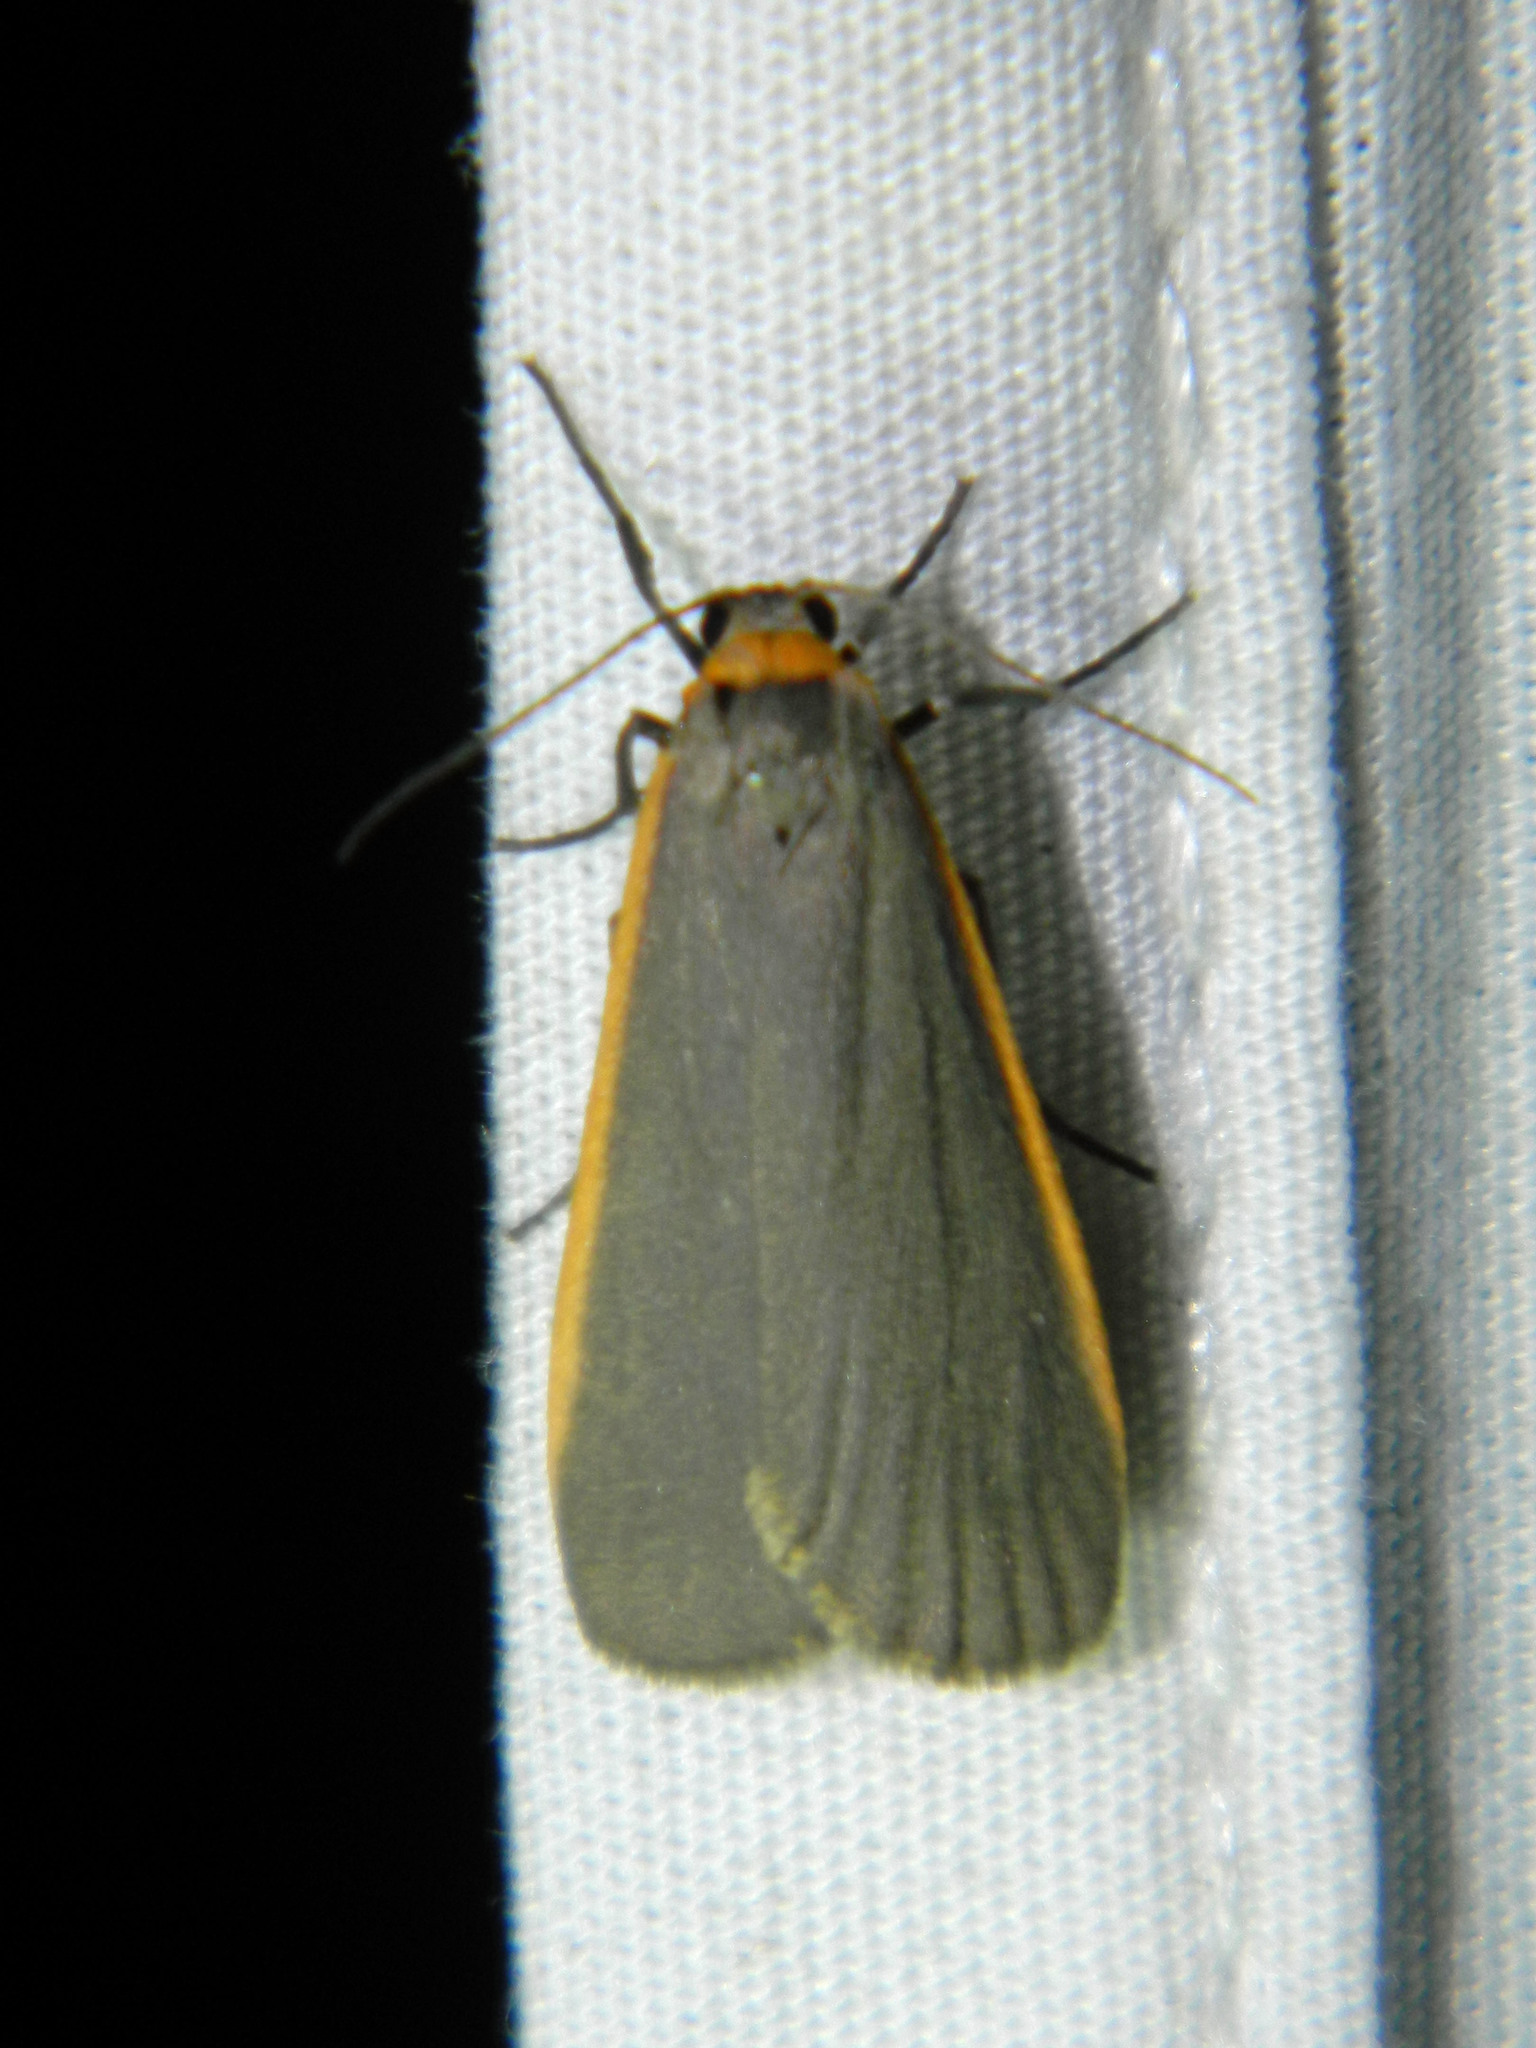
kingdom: Animalia
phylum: Arthropoda
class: Insecta
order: Lepidoptera
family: Erebidae
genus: Manulea
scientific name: Manulea bicolor
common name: Bicolored moth
